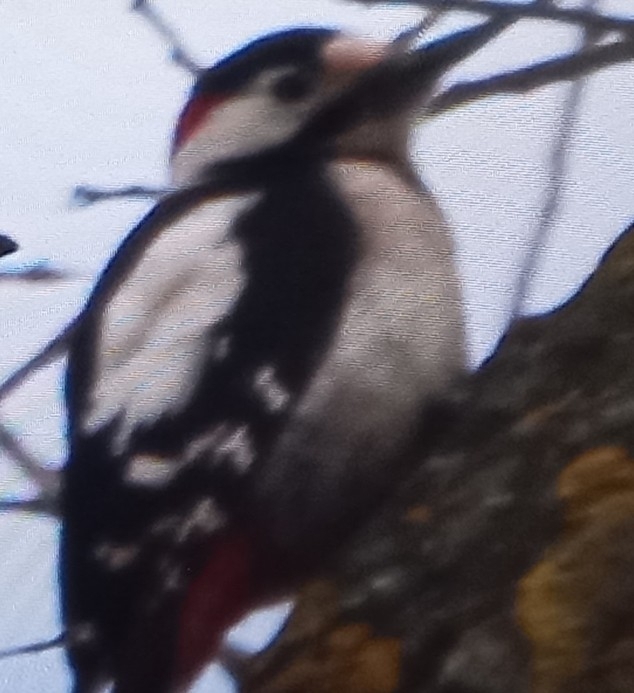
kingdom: Animalia
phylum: Chordata
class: Aves
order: Piciformes
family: Picidae
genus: Dendrocopos
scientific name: Dendrocopos syriacus
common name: Syrian woodpecker
